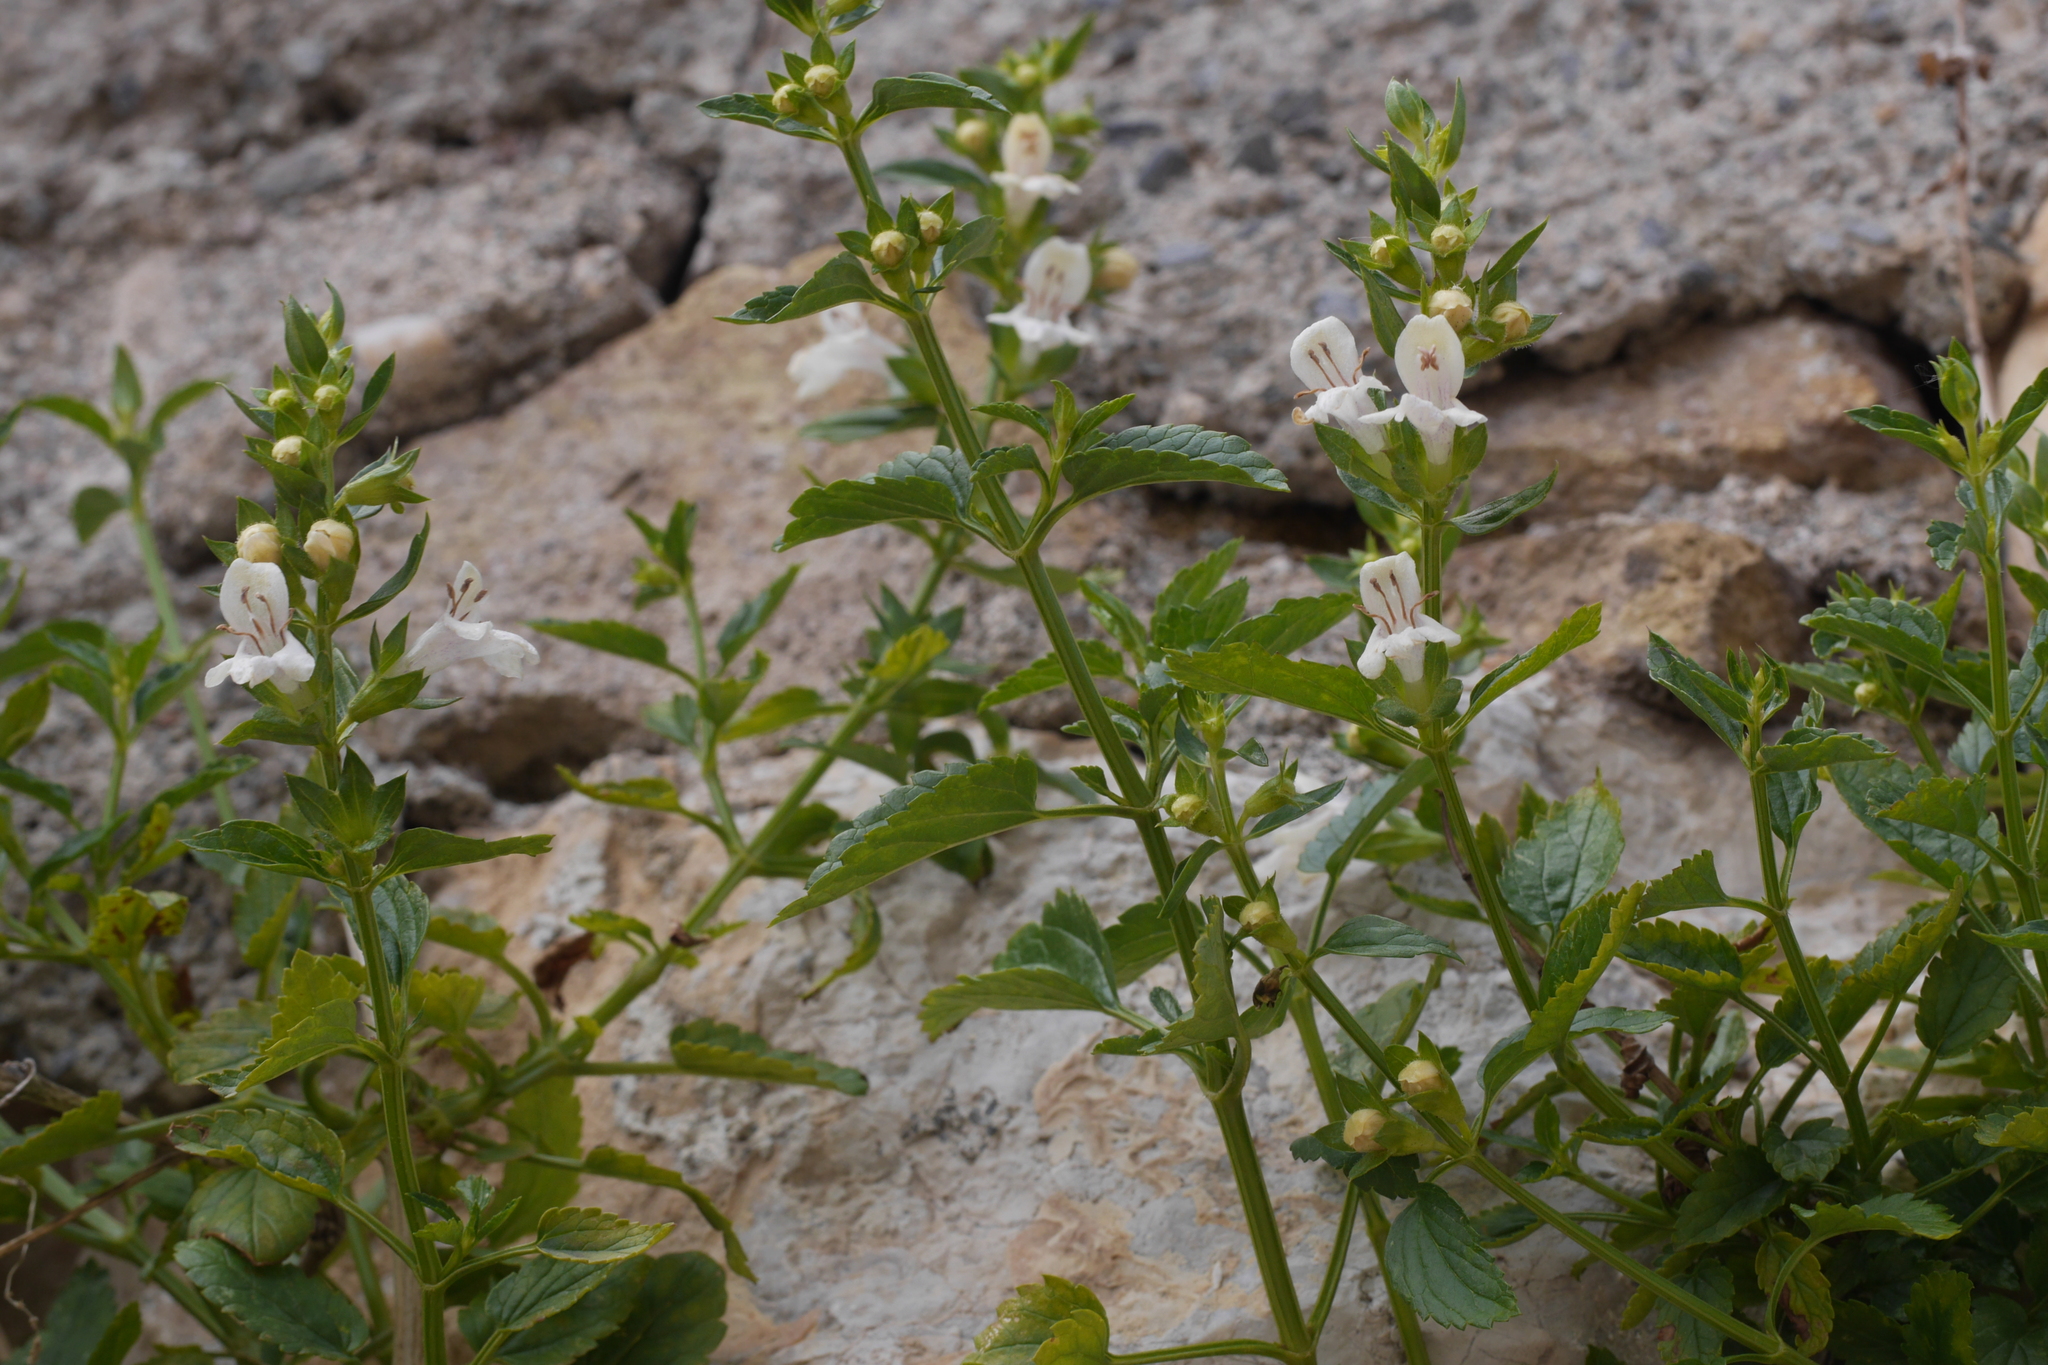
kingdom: Plantae
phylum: Tracheophyta
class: Magnoliopsida
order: Lamiales
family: Lamiaceae
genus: Prasium
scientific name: Prasium majus
